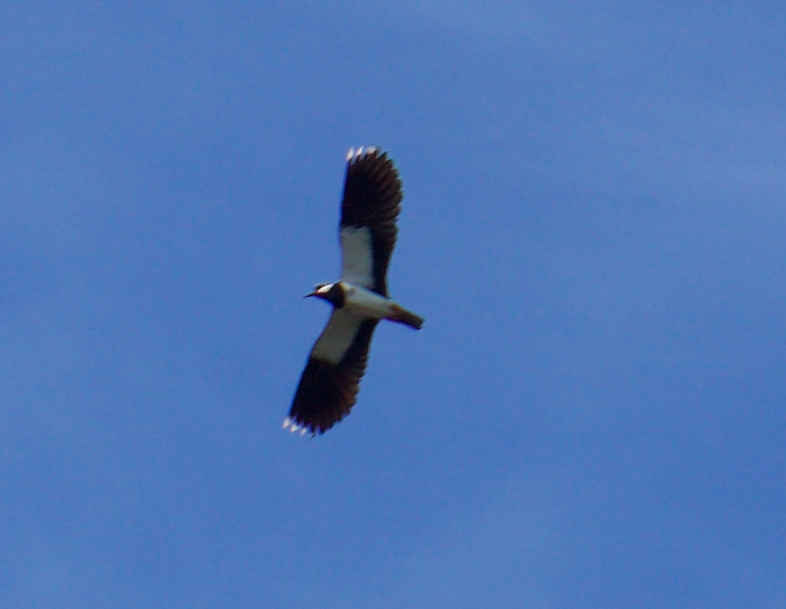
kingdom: Animalia
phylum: Chordata
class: Aves
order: Charadriiformes
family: Charadriidae
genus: Vanellus
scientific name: Vanellus vanellus
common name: Northern lapwing
